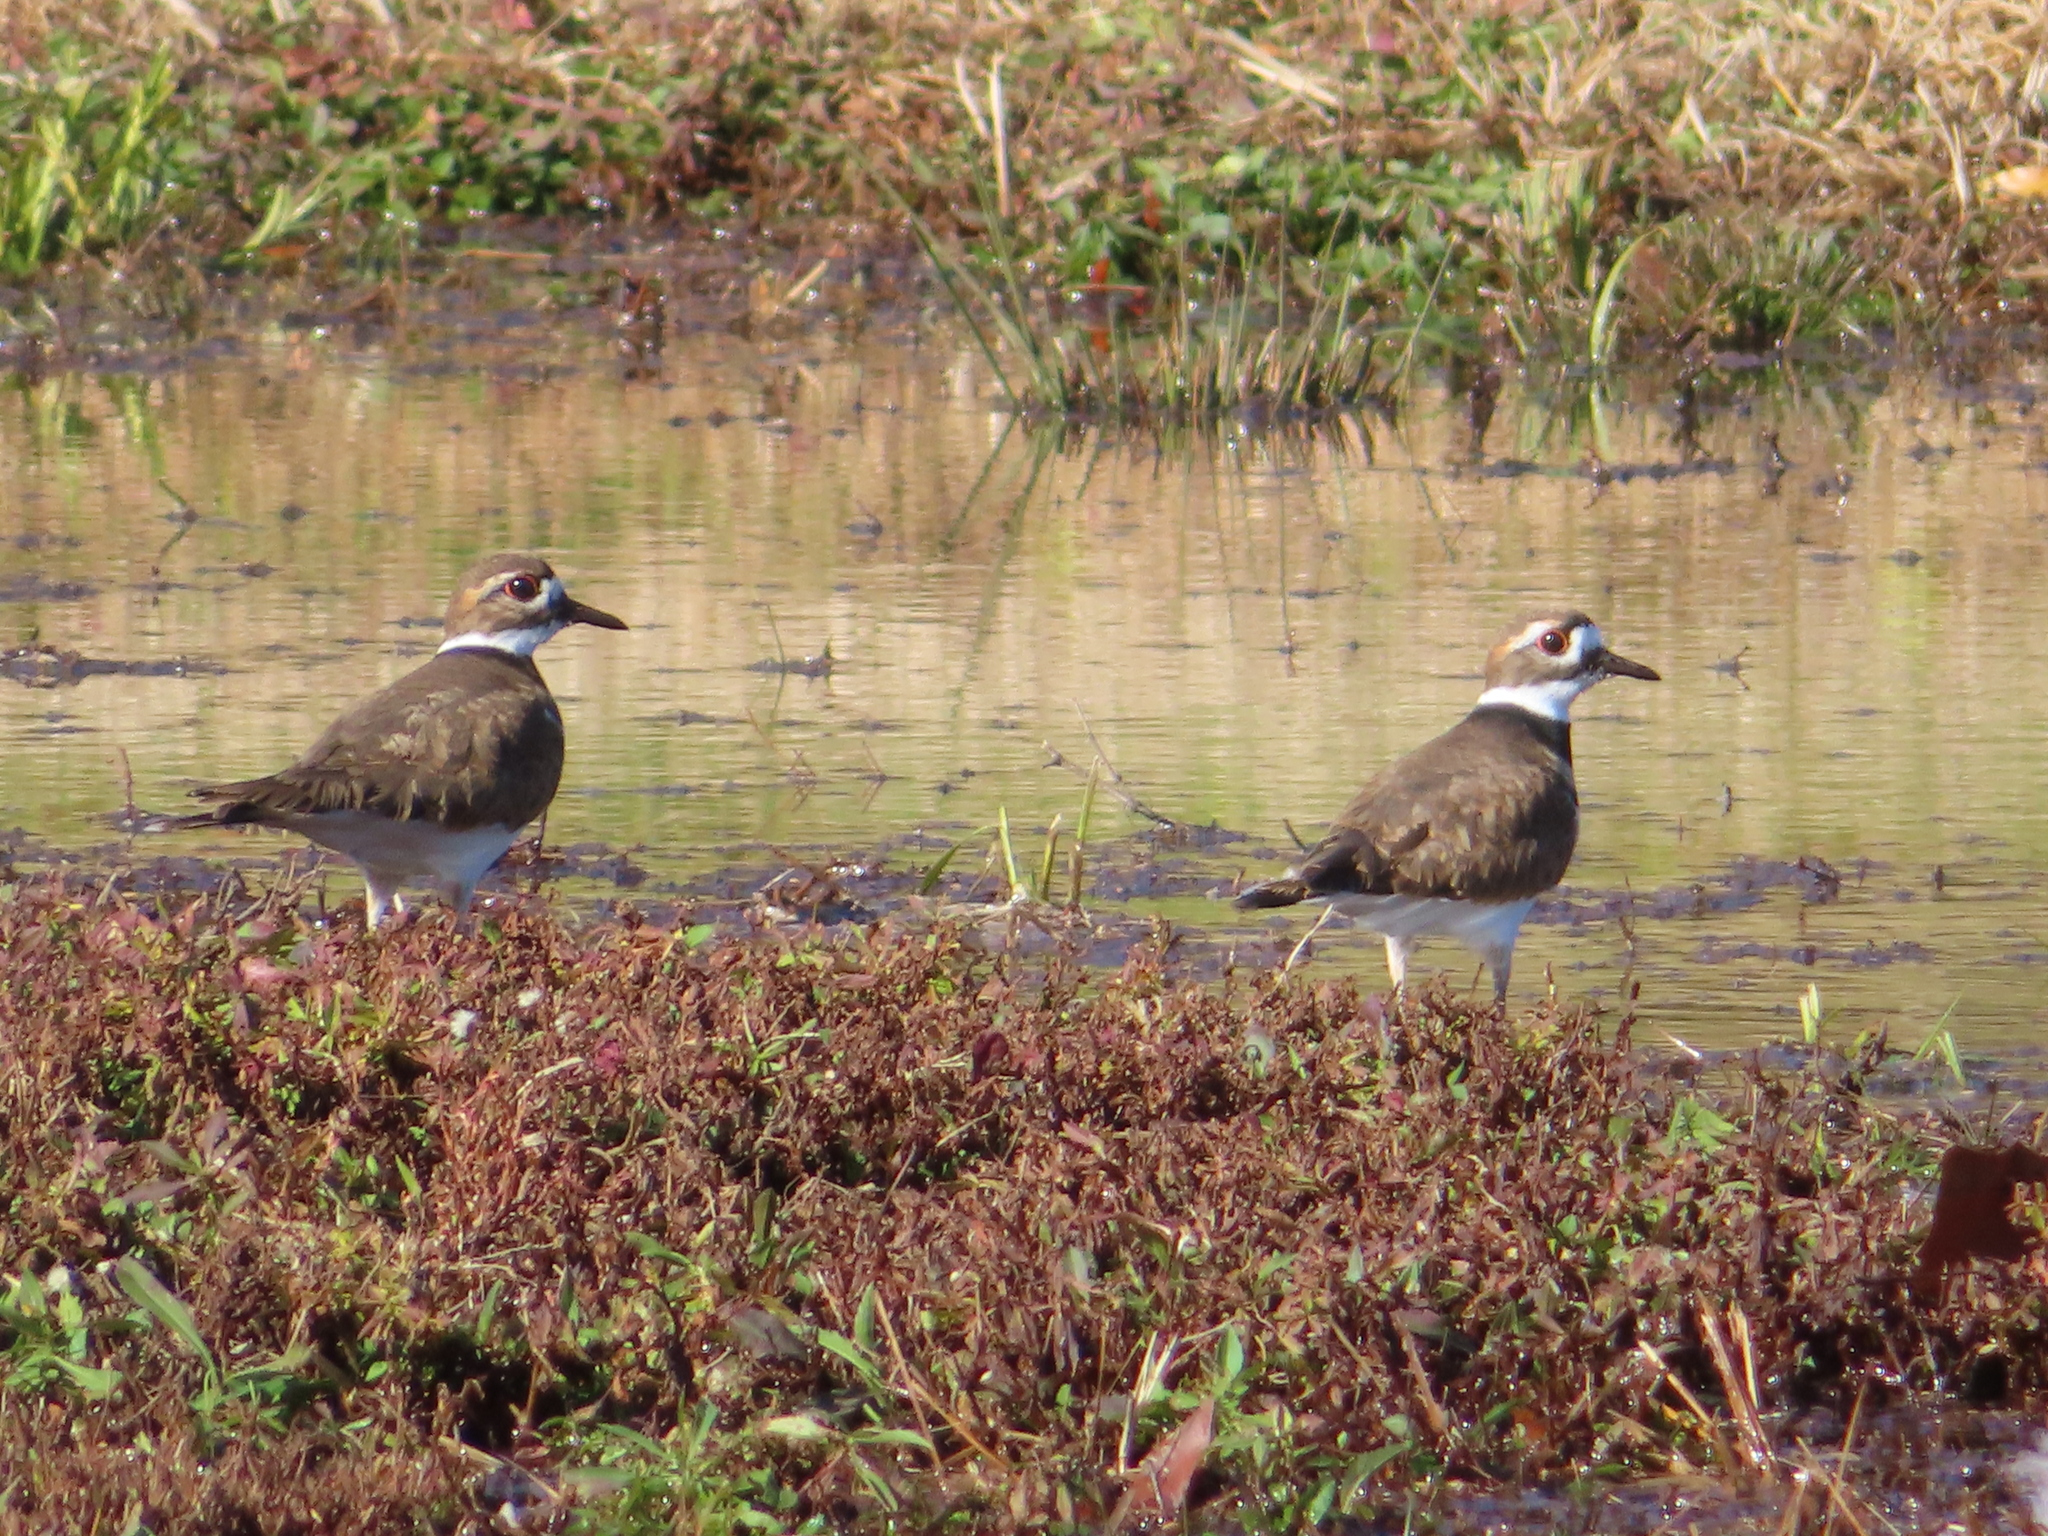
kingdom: Animalia
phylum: Chordata
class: Aves
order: Charadriiformes
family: Charadriidae
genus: Charadrius
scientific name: Charadrius vociferus
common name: Killdeer
